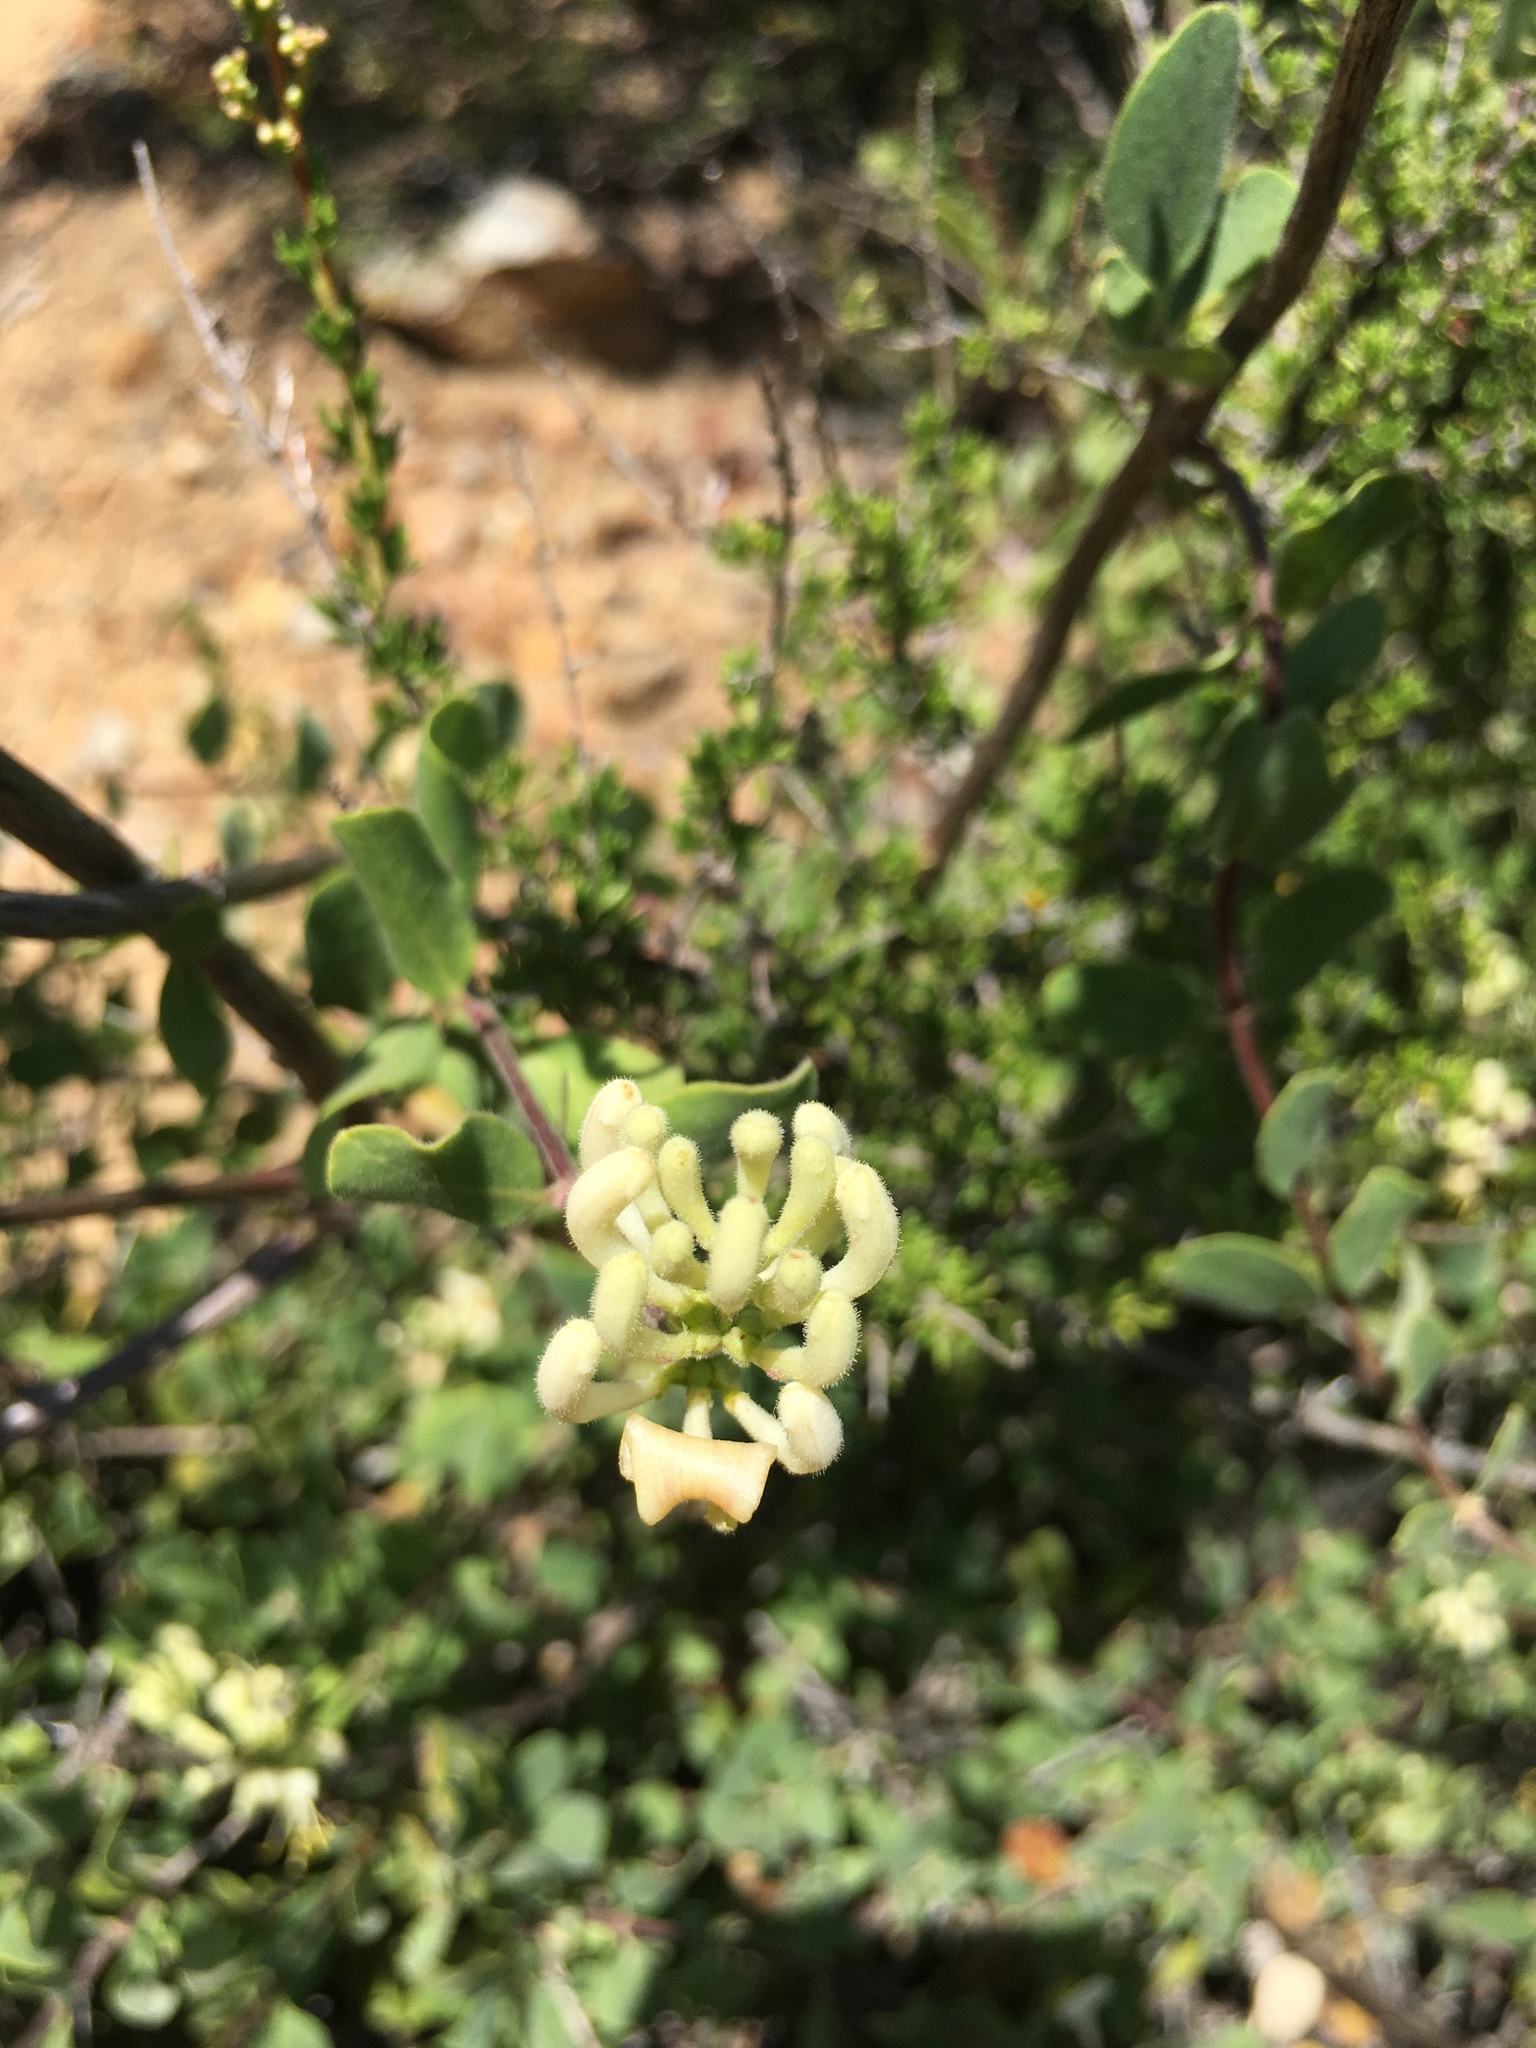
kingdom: Plantae
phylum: Tracheophyta
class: Magnoliopsida
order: Dipsacales
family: Caprifoliaceae
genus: Lonicera
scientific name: Lonicera subspicata
